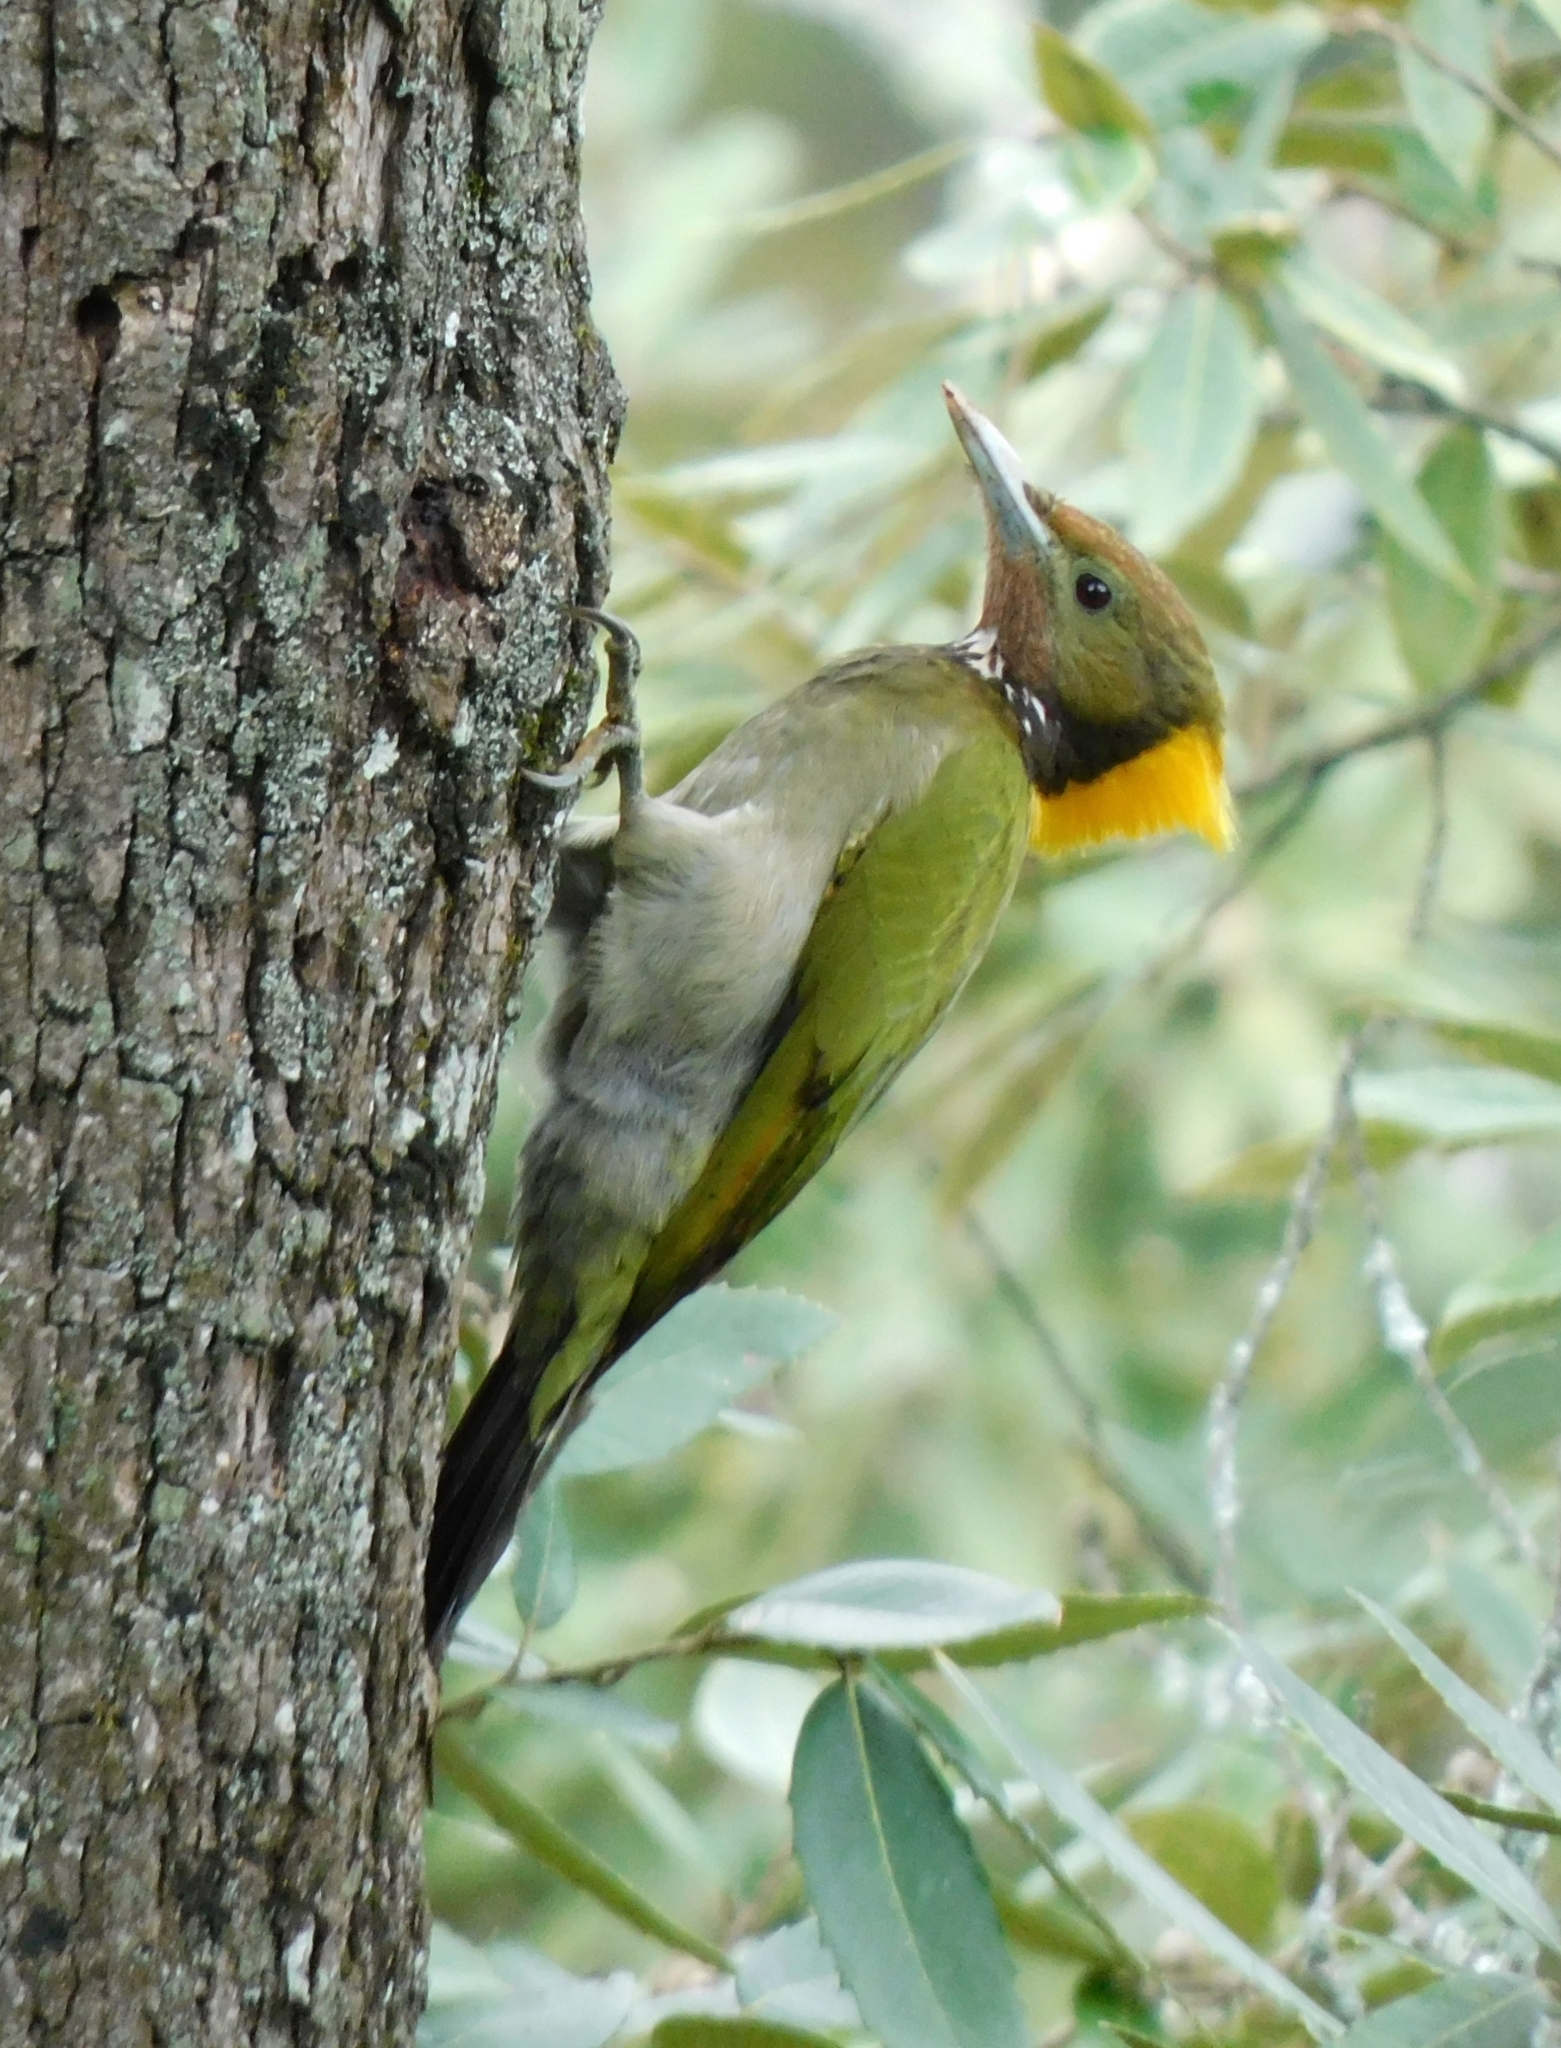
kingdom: Animalia
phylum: Chordata
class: Aves
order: Piciformes
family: Picidae
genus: Chrysophlegma
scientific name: Chrysophlegma flavinucha
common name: Greater yellownape
